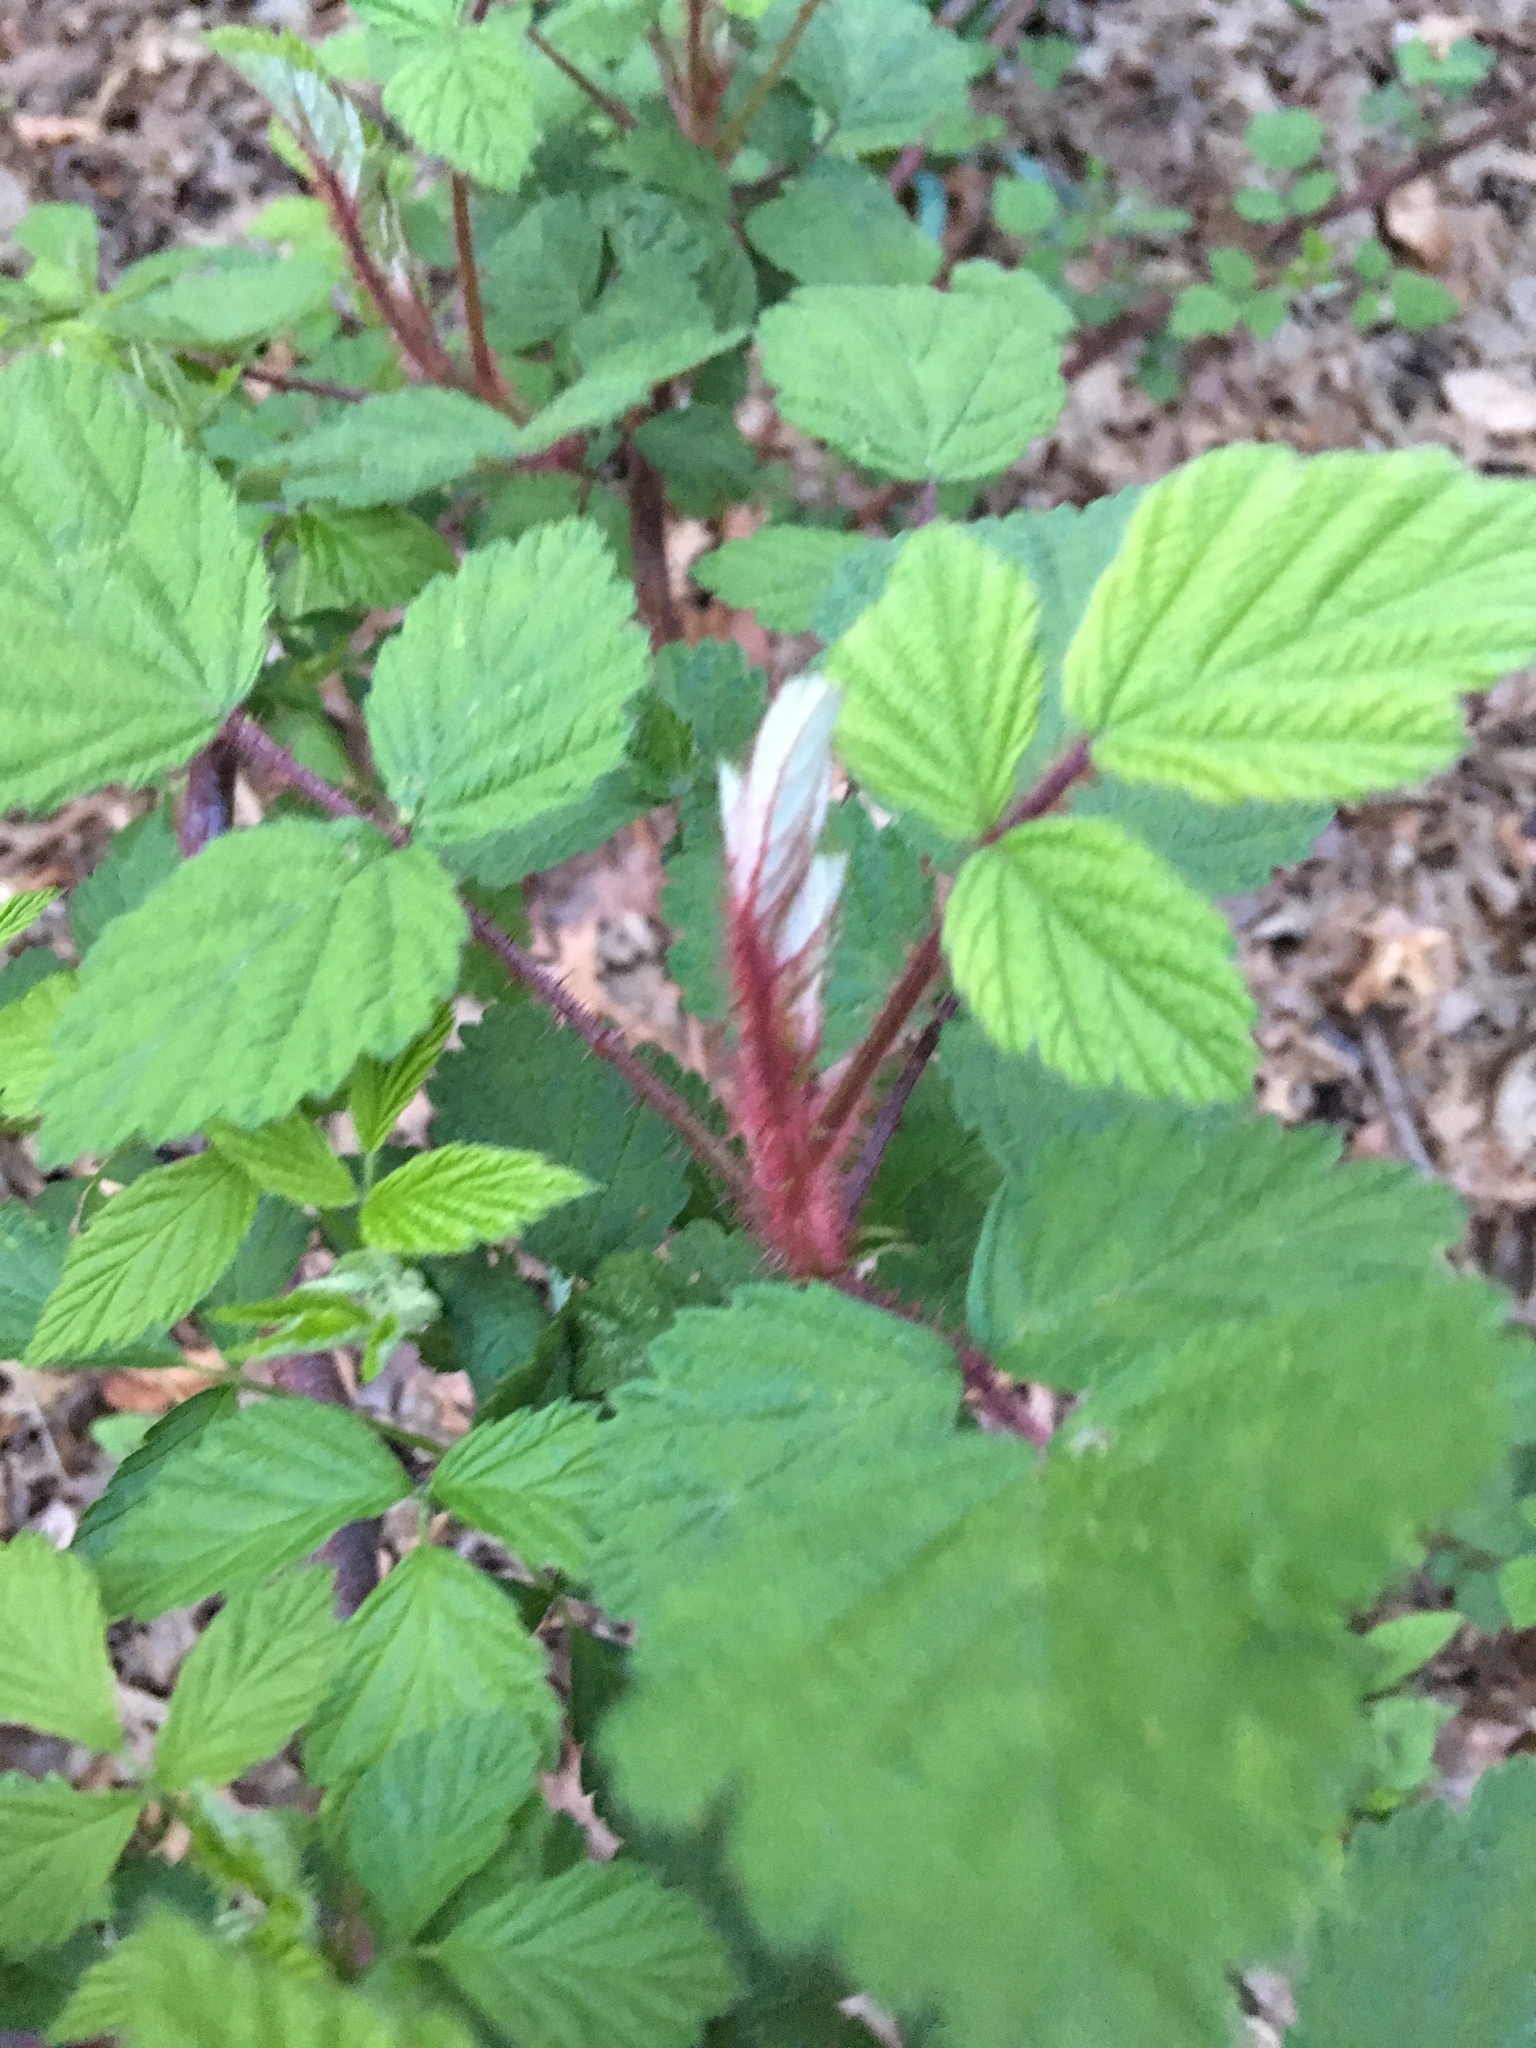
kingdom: Plantae
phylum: Tracheophyta
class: Magnoliopsida
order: Rosales
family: Rosaceae
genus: Rubus
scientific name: Rubus phoenicolasius
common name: Japanese wineberry
